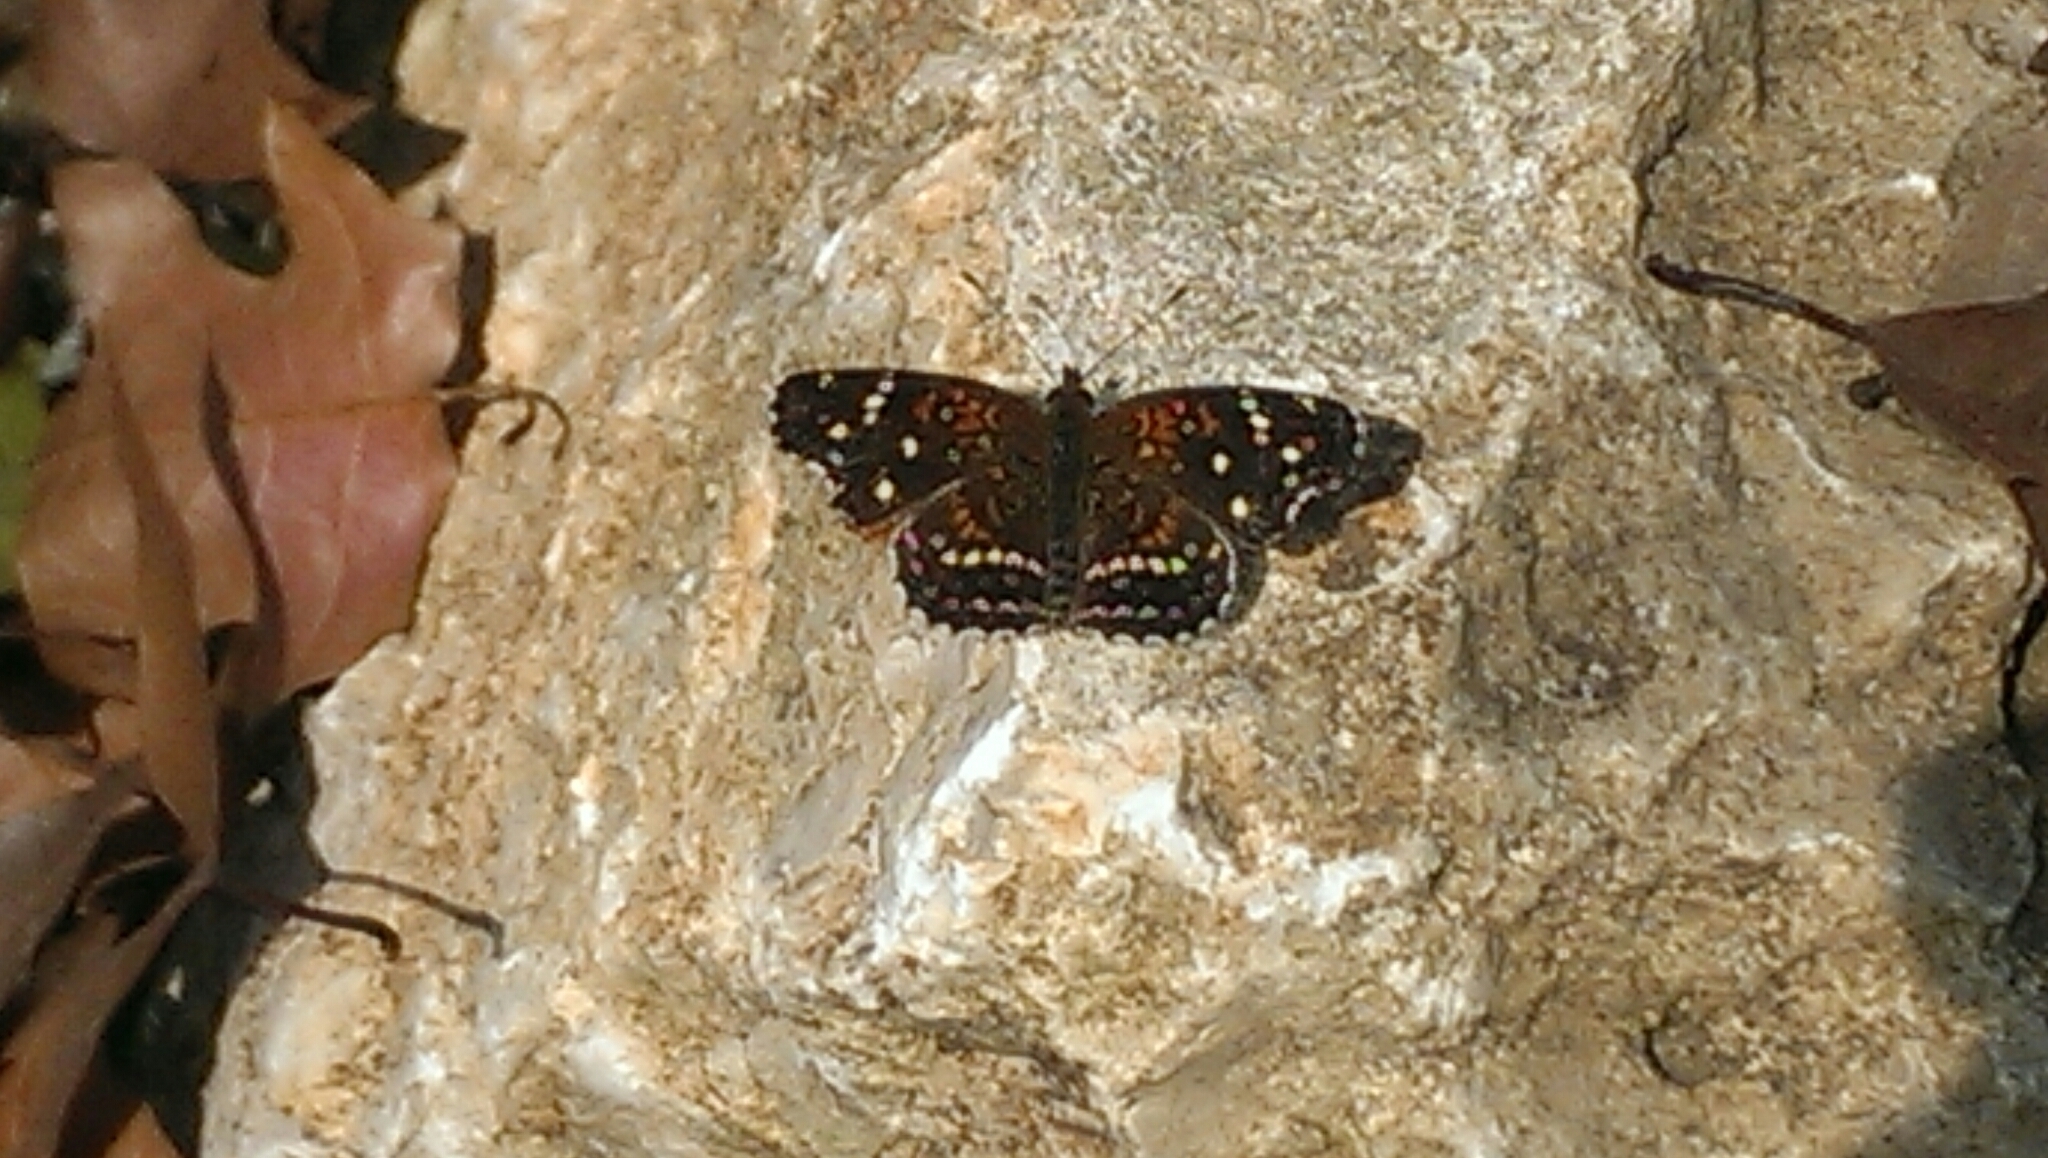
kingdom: Animalia
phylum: Arthropoda
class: Insecta
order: Lepidoptera
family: Nymphalidae
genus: Anthanassa
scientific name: Anthanassa texana
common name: Texan crescent
